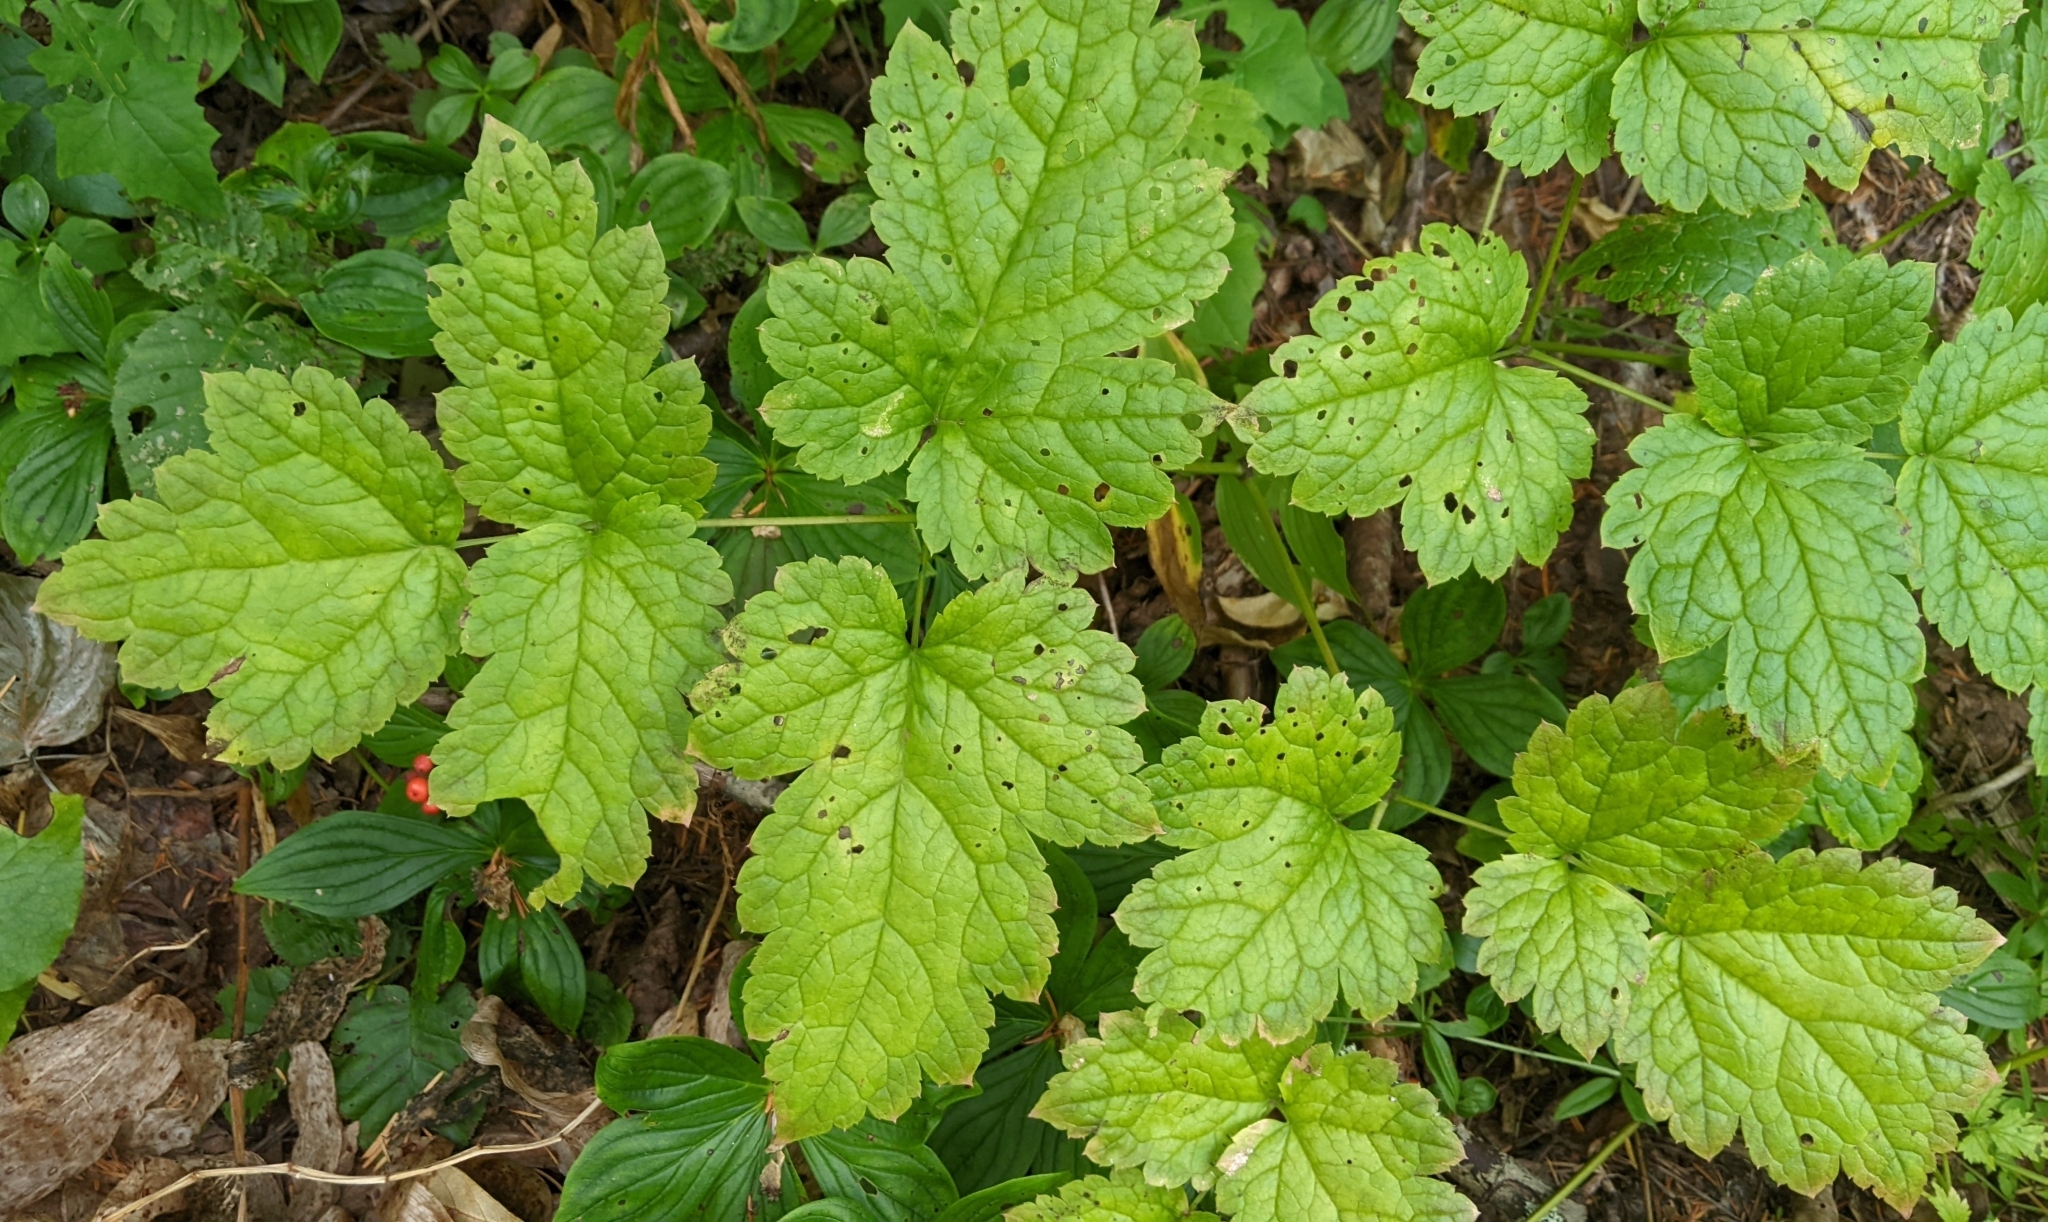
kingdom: Plantae
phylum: Tracheophyta
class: Magnoliopsida
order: Ranunculales
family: Ranunculaceae
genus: Actaea
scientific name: Actaea rubra
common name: Red baneberry
